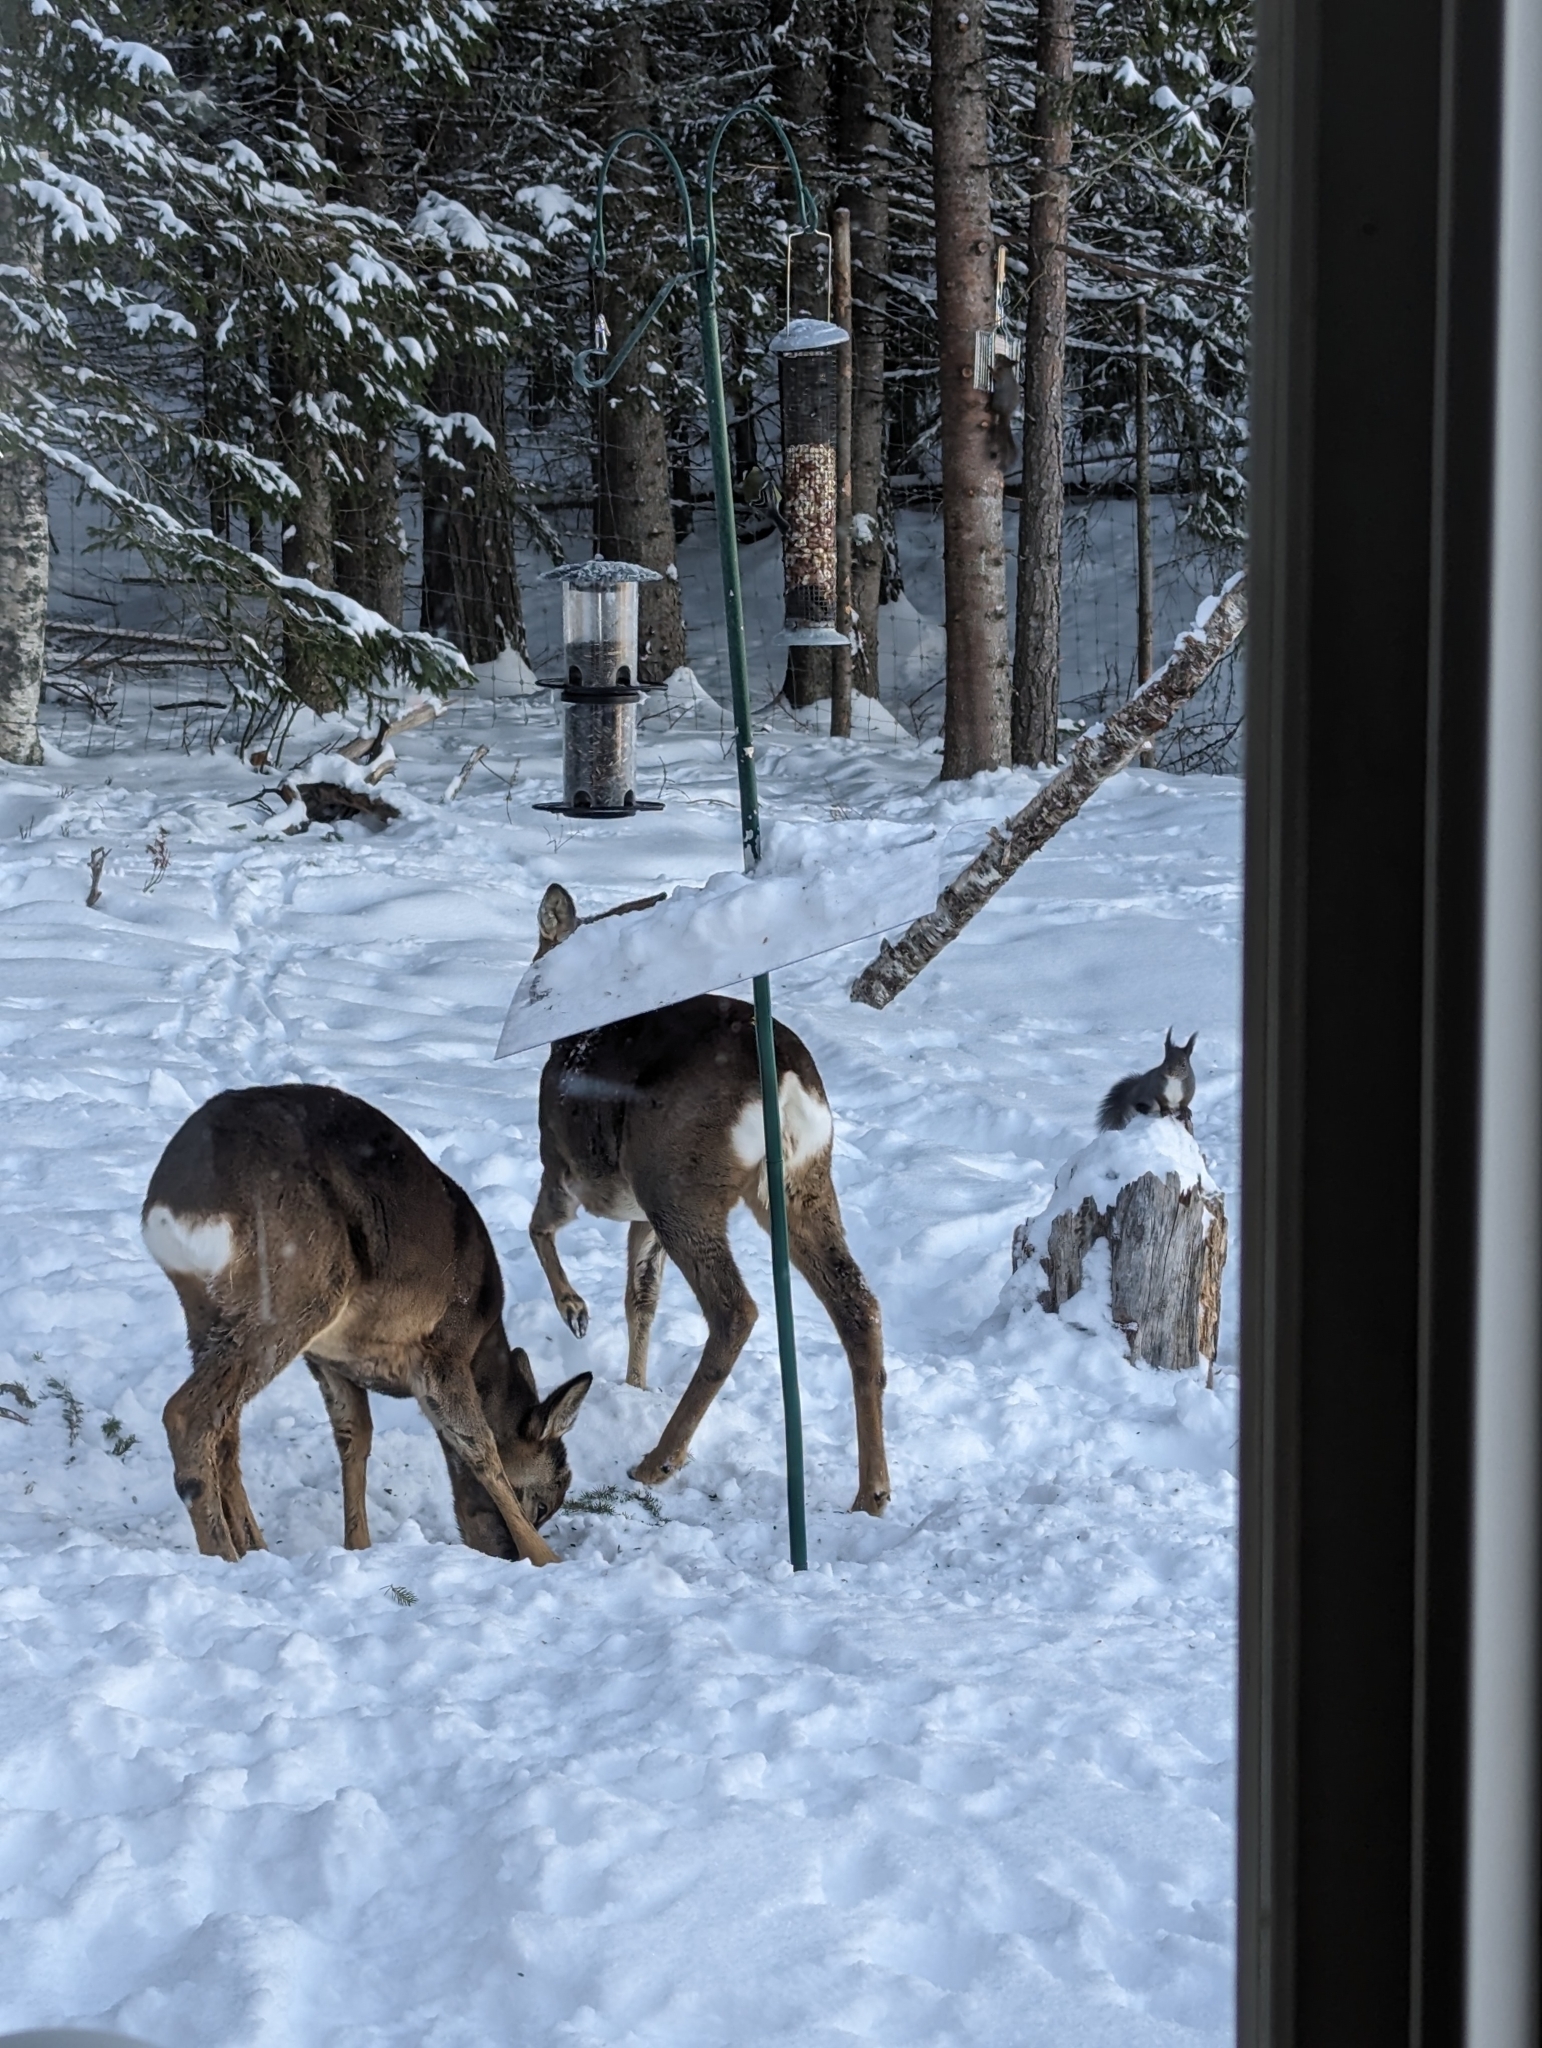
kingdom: Animalia
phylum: Chordata
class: Mammalia
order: Artiodactyla
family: Cervidae
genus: Capreolus
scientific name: Capreolus capreolus
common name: Western roe deer
